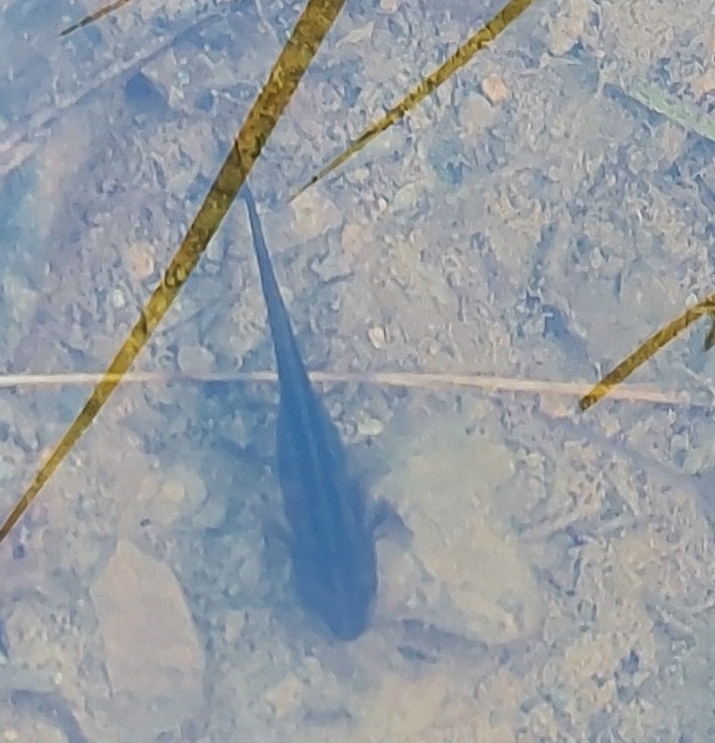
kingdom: Animalia
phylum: Chordata
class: Amphibia
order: Caudata
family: Salamandridae
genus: Ichthyosaura
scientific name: Ichthyosaura alpestris
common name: Alpine newt
